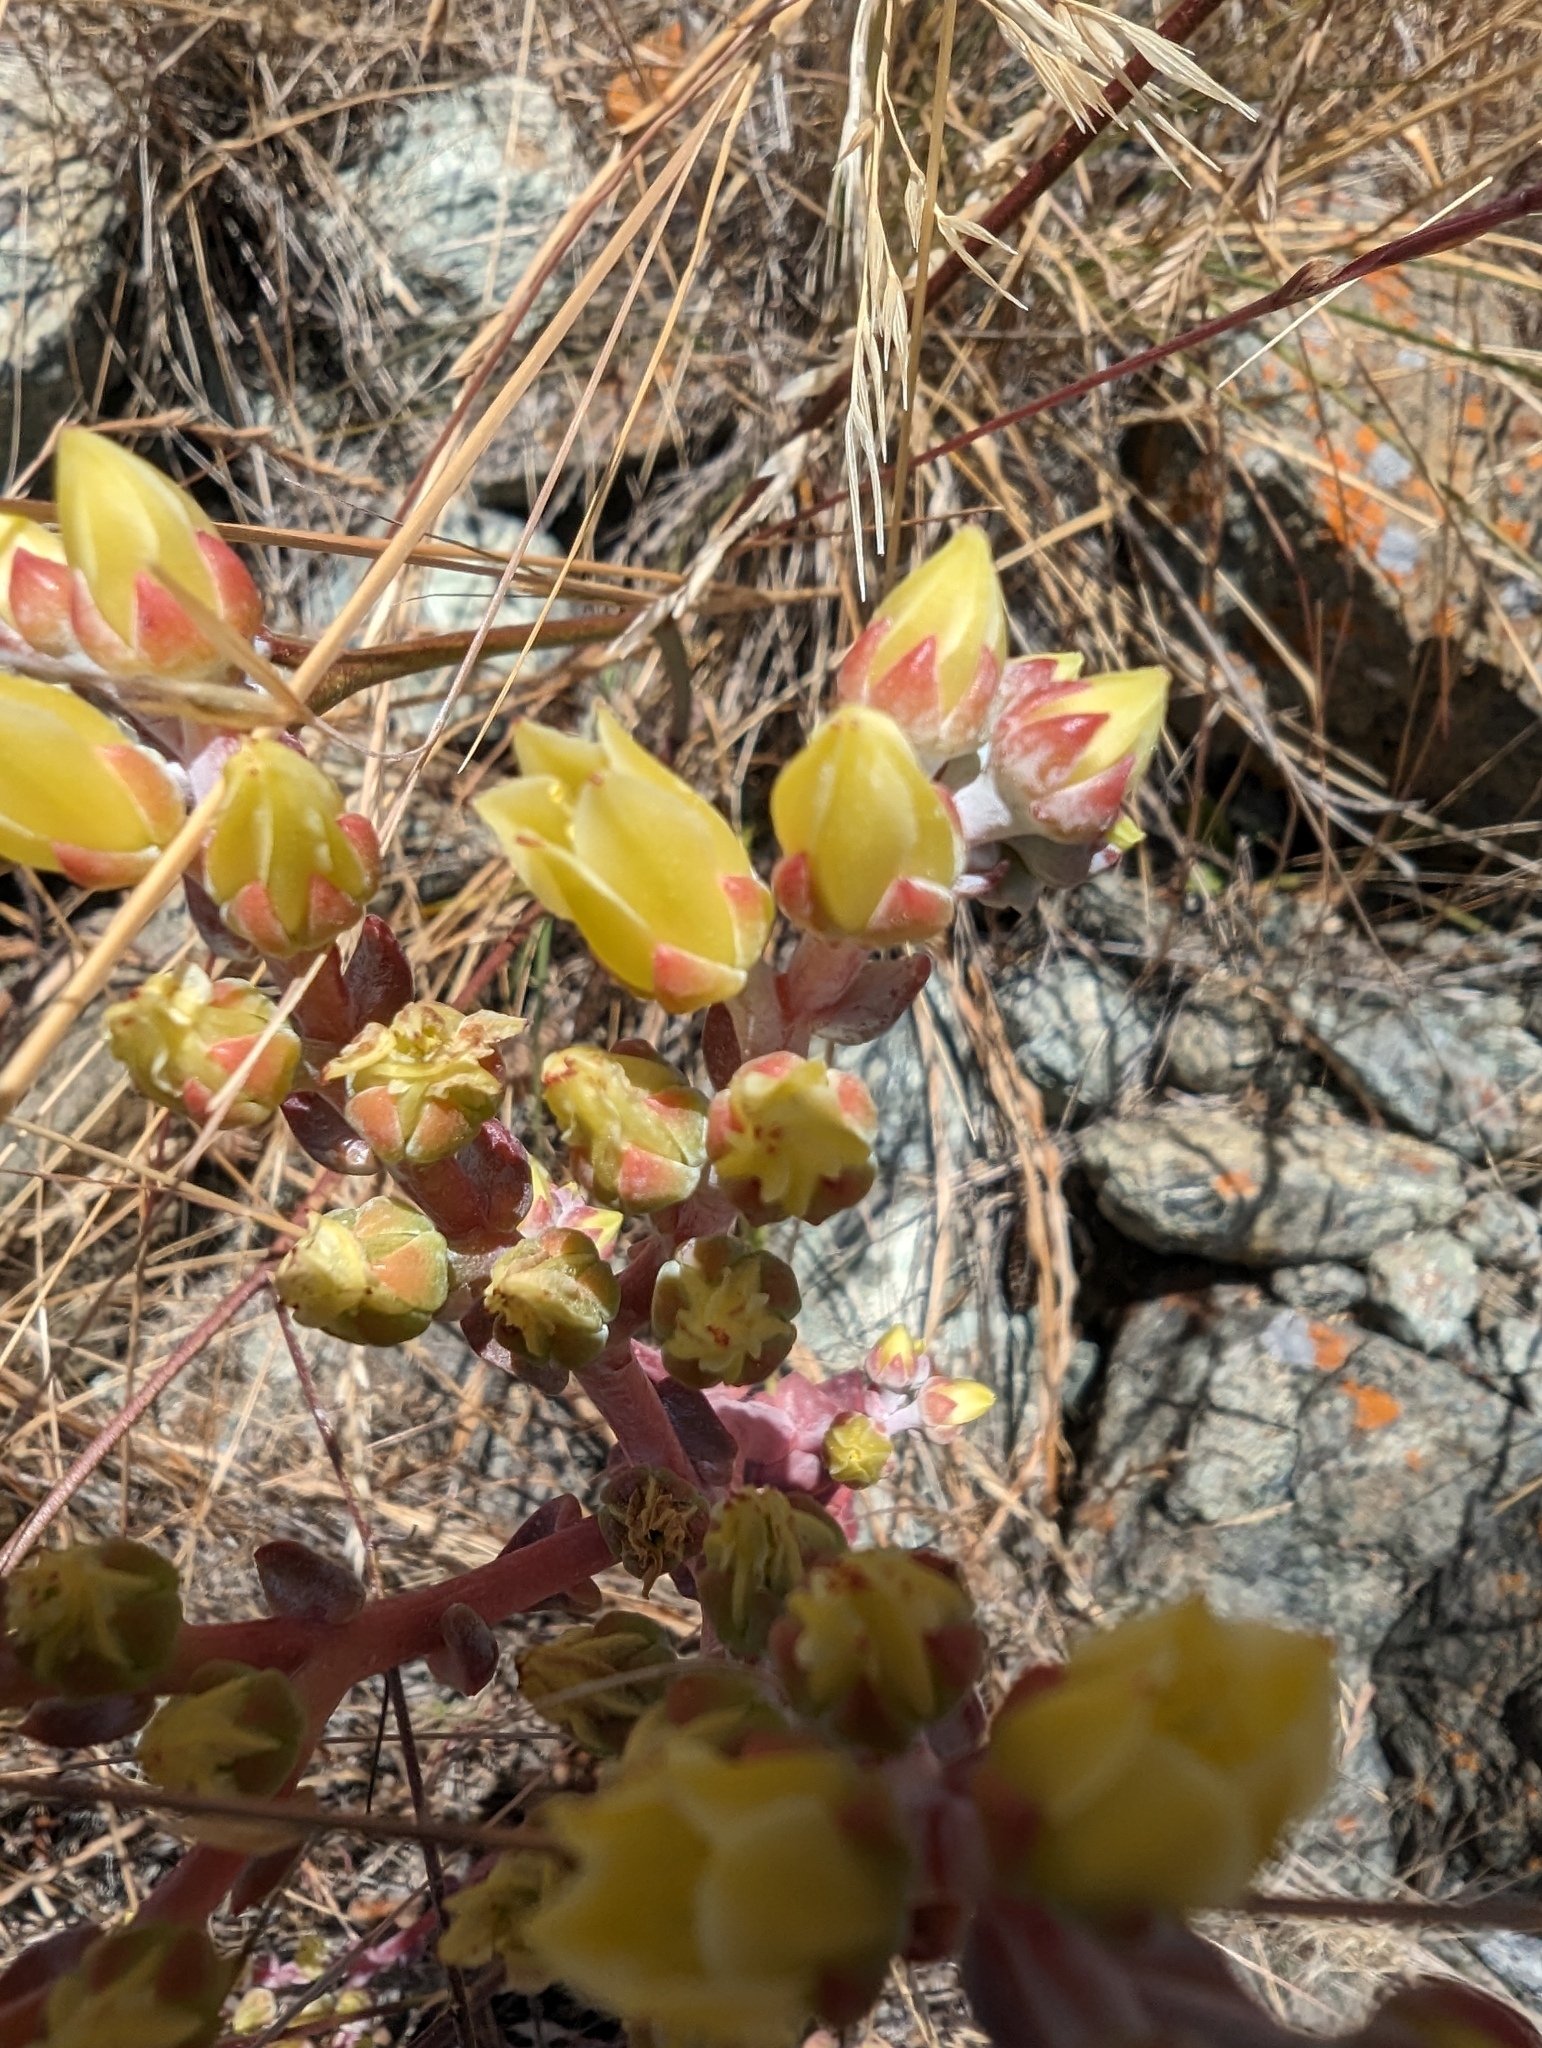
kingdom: Plantae
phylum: Tracheophyta
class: Magnoliopsida
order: Saxifragales
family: Crassulaceae
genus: Dudleya
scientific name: Dudleya farinosa
